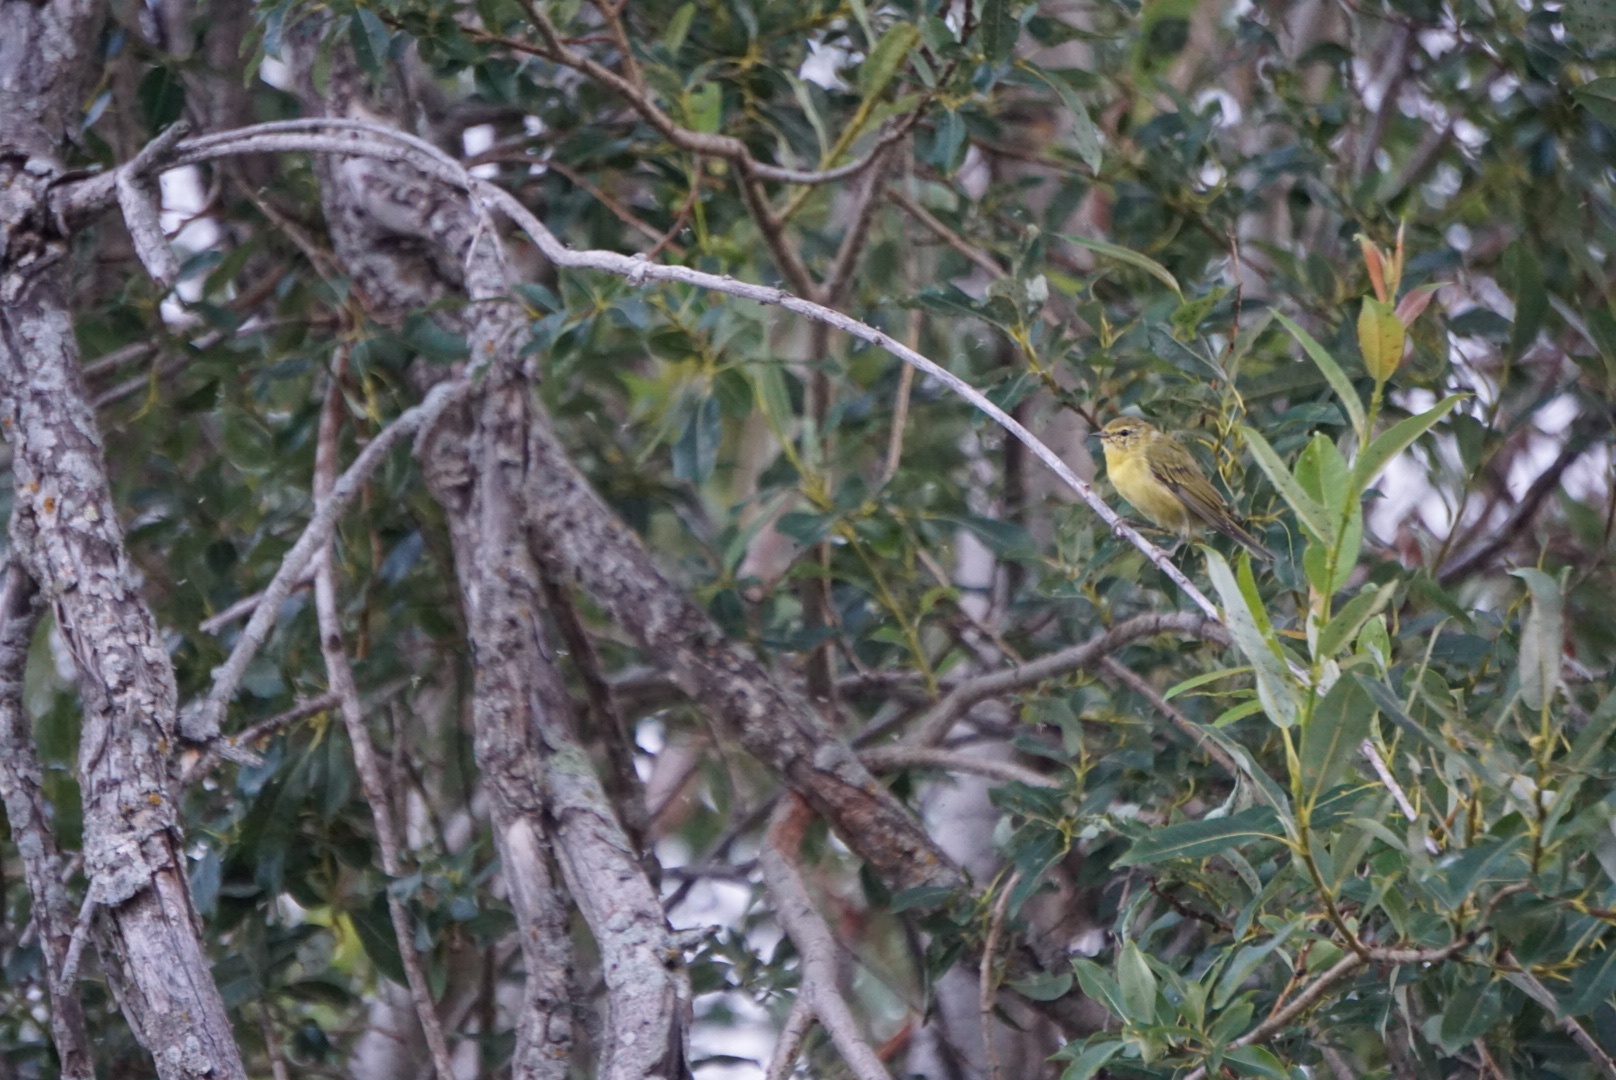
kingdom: Animalia
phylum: Chordata
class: Aves
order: Passeriformes
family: Parulidae
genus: Setophaga
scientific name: Setophaga petechia
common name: Yellow warbler
